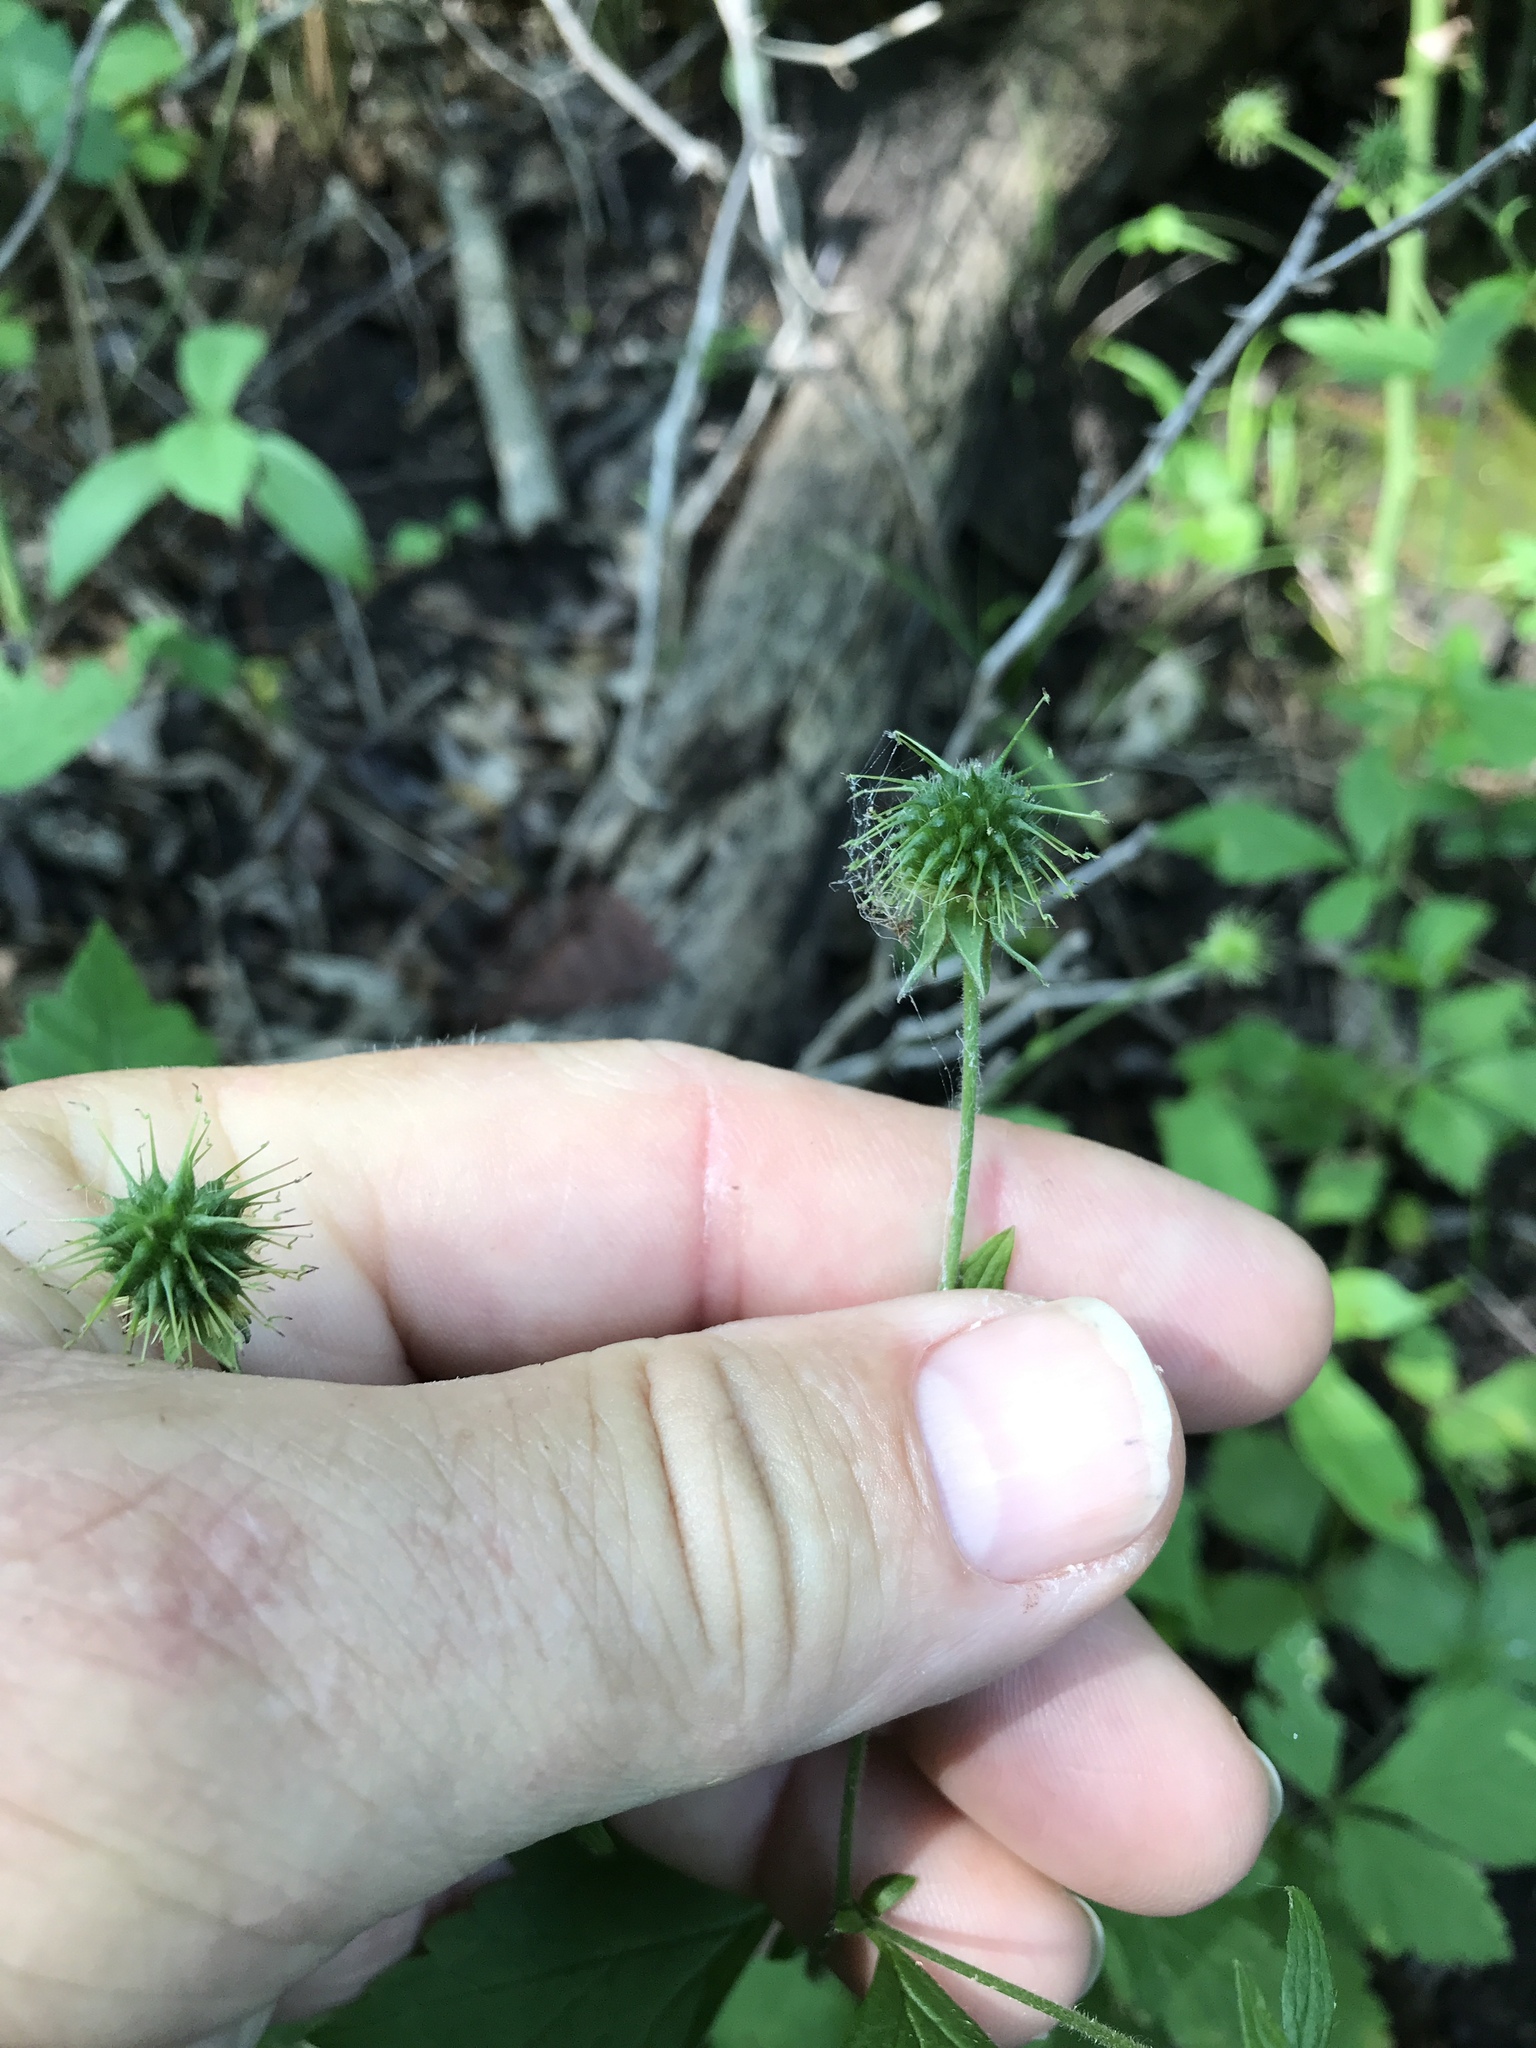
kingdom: Plantae
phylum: Tracheophyta
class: Magnoliopsida
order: Rosales
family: Rosaceae
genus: Geum
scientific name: Geum canadense
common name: White avens
